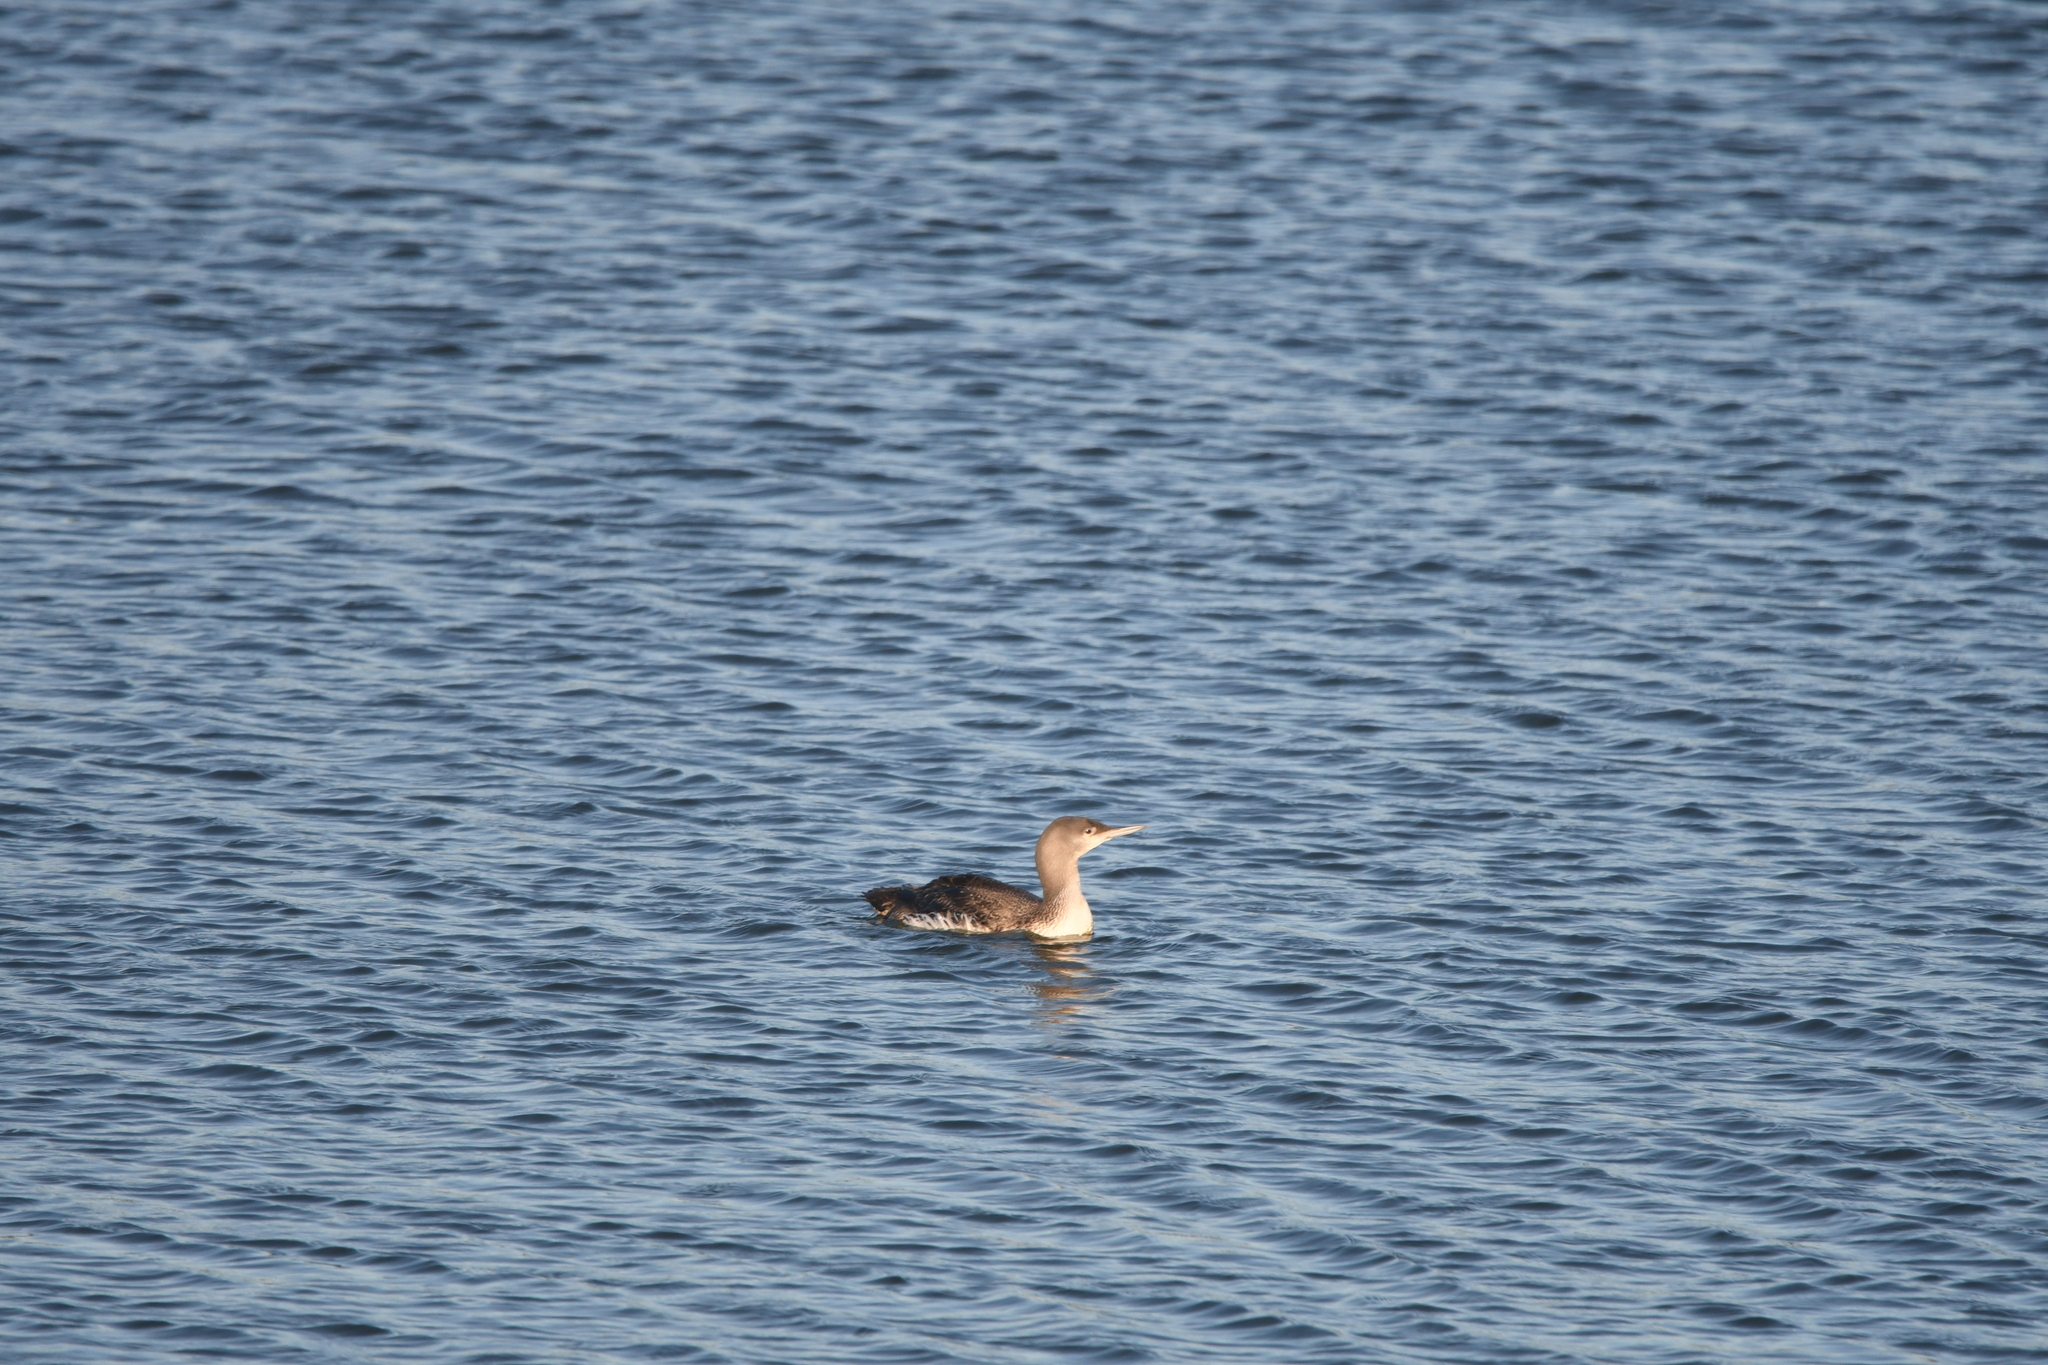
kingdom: Animalia
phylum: Chordata
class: Aves
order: Gaviiformes
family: Gaviidae
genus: Gavia
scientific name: Gavia stellata
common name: Red-throated loon
